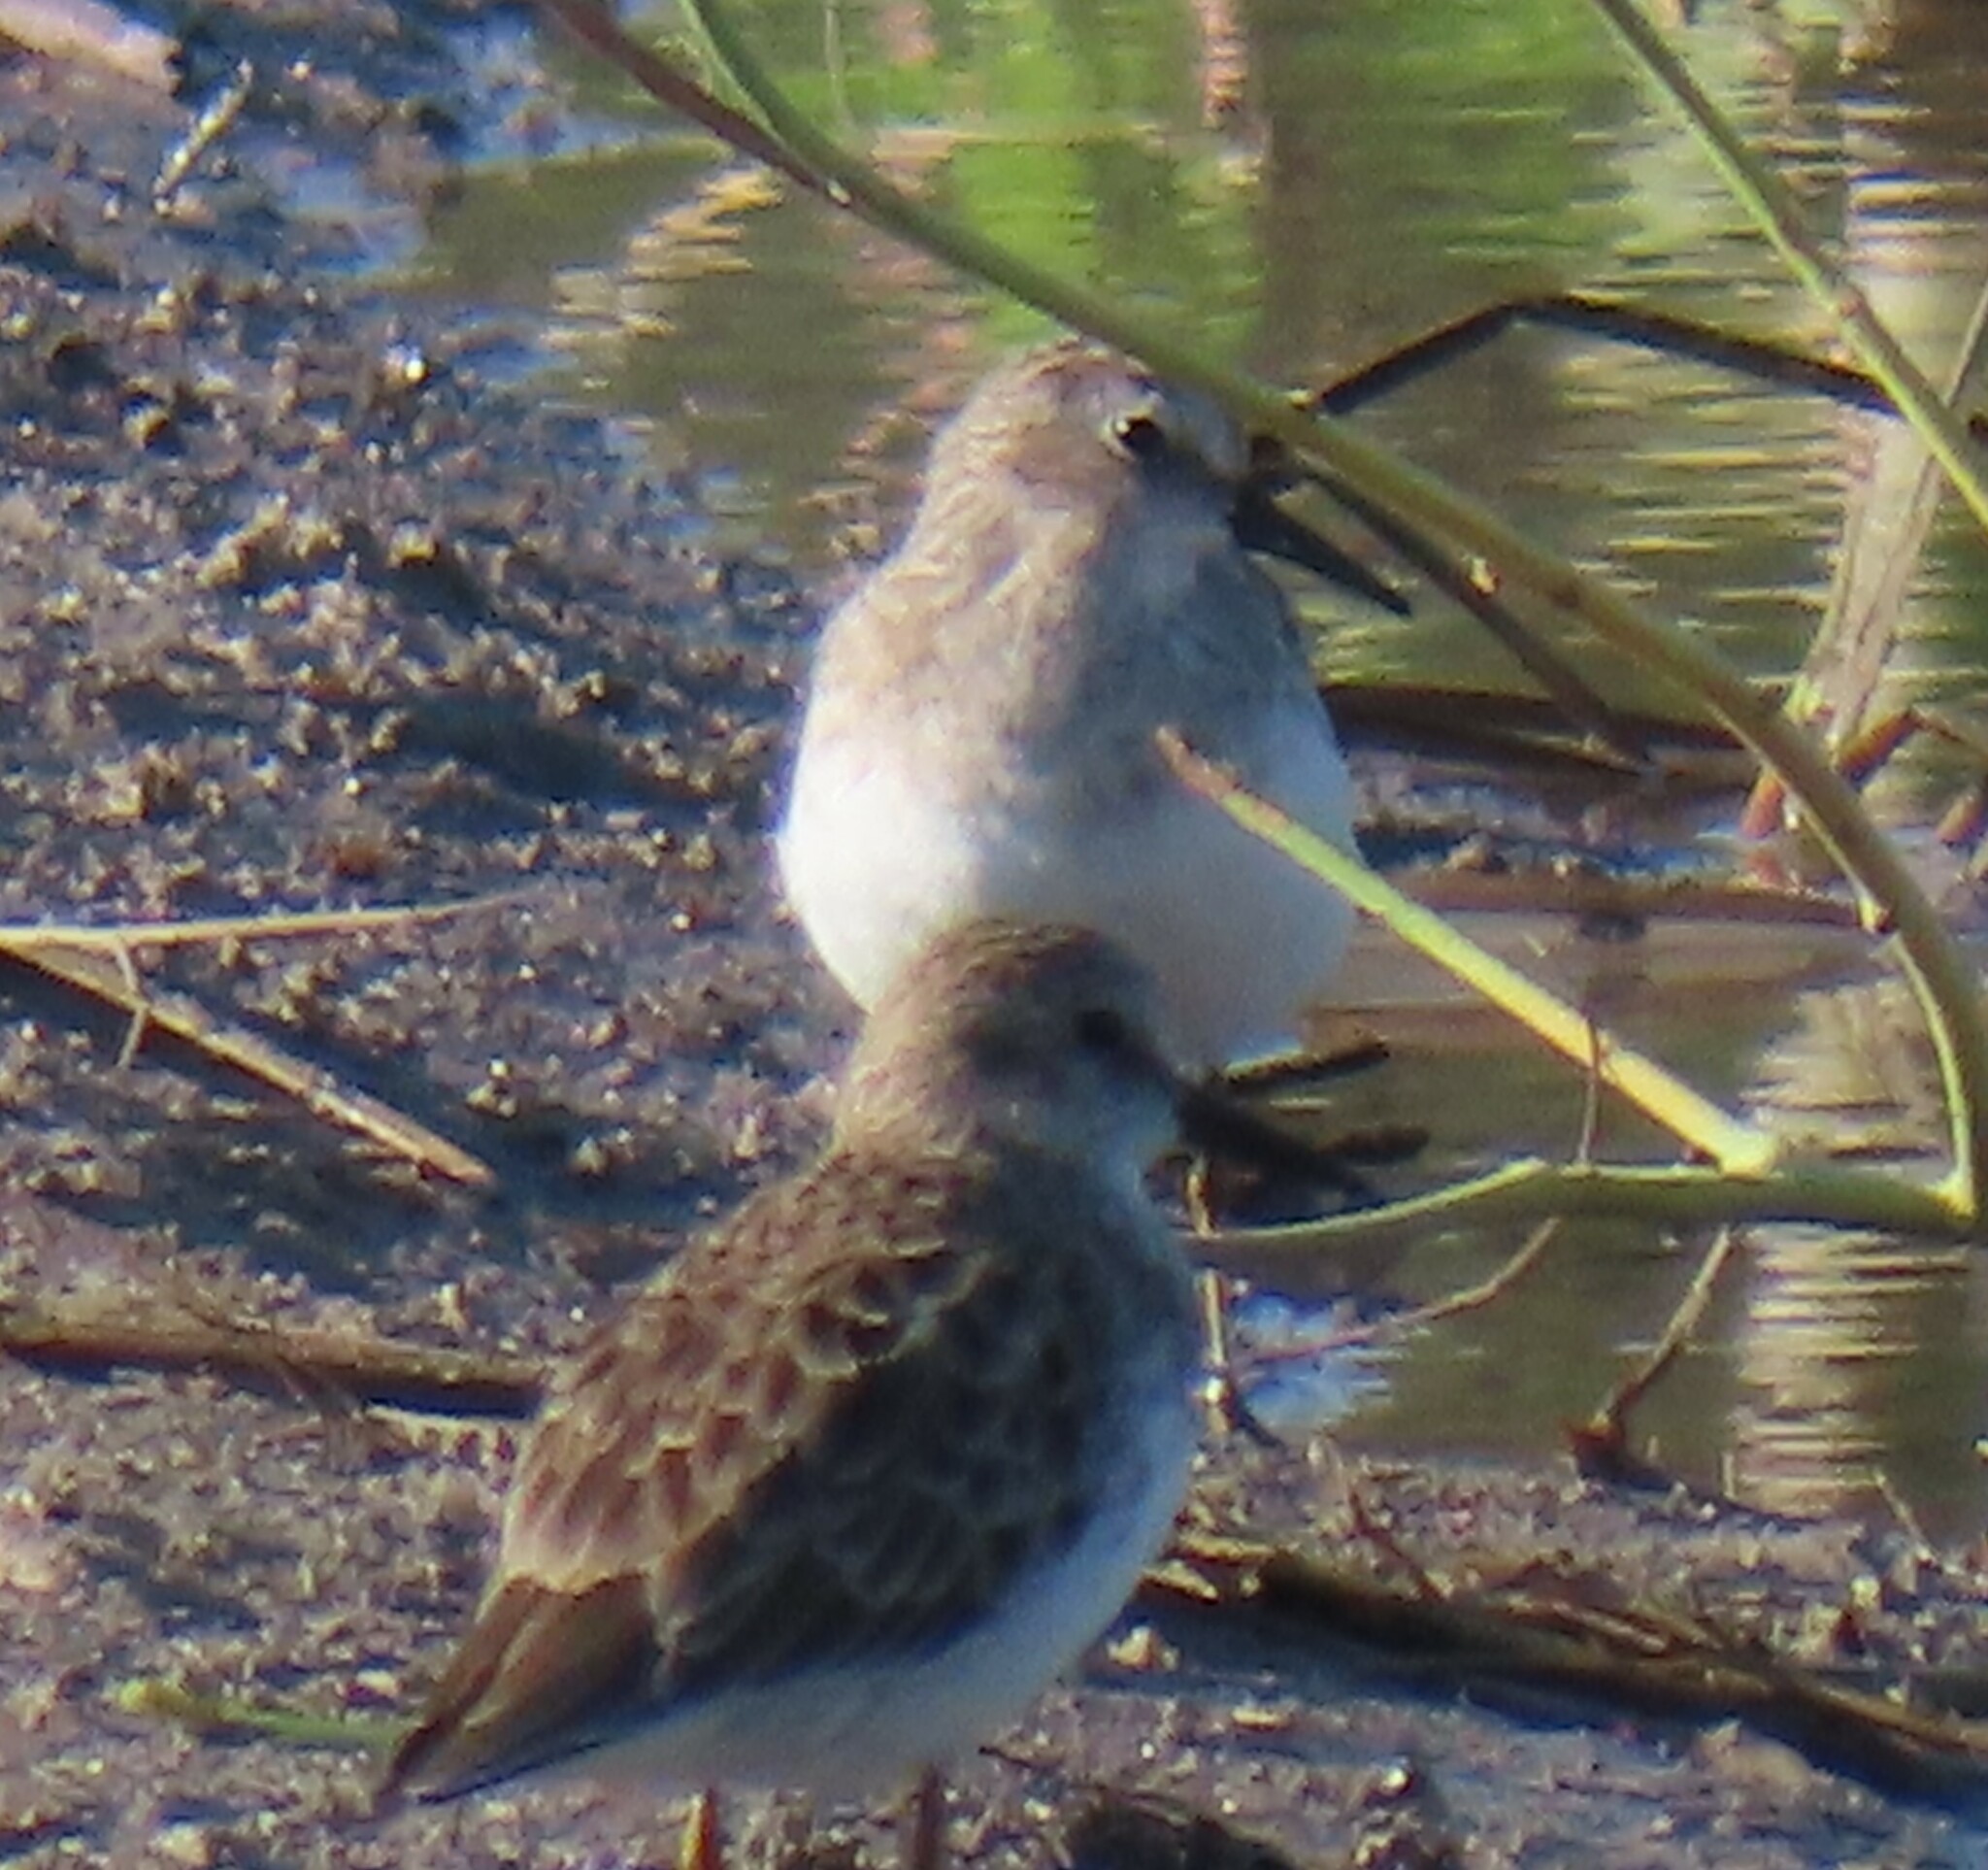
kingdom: Animalia
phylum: Chordata
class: Aves
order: Charadriiformes
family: Scolopacidae
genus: Calidris
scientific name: Calidris minutilla
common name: Least sandpiper
